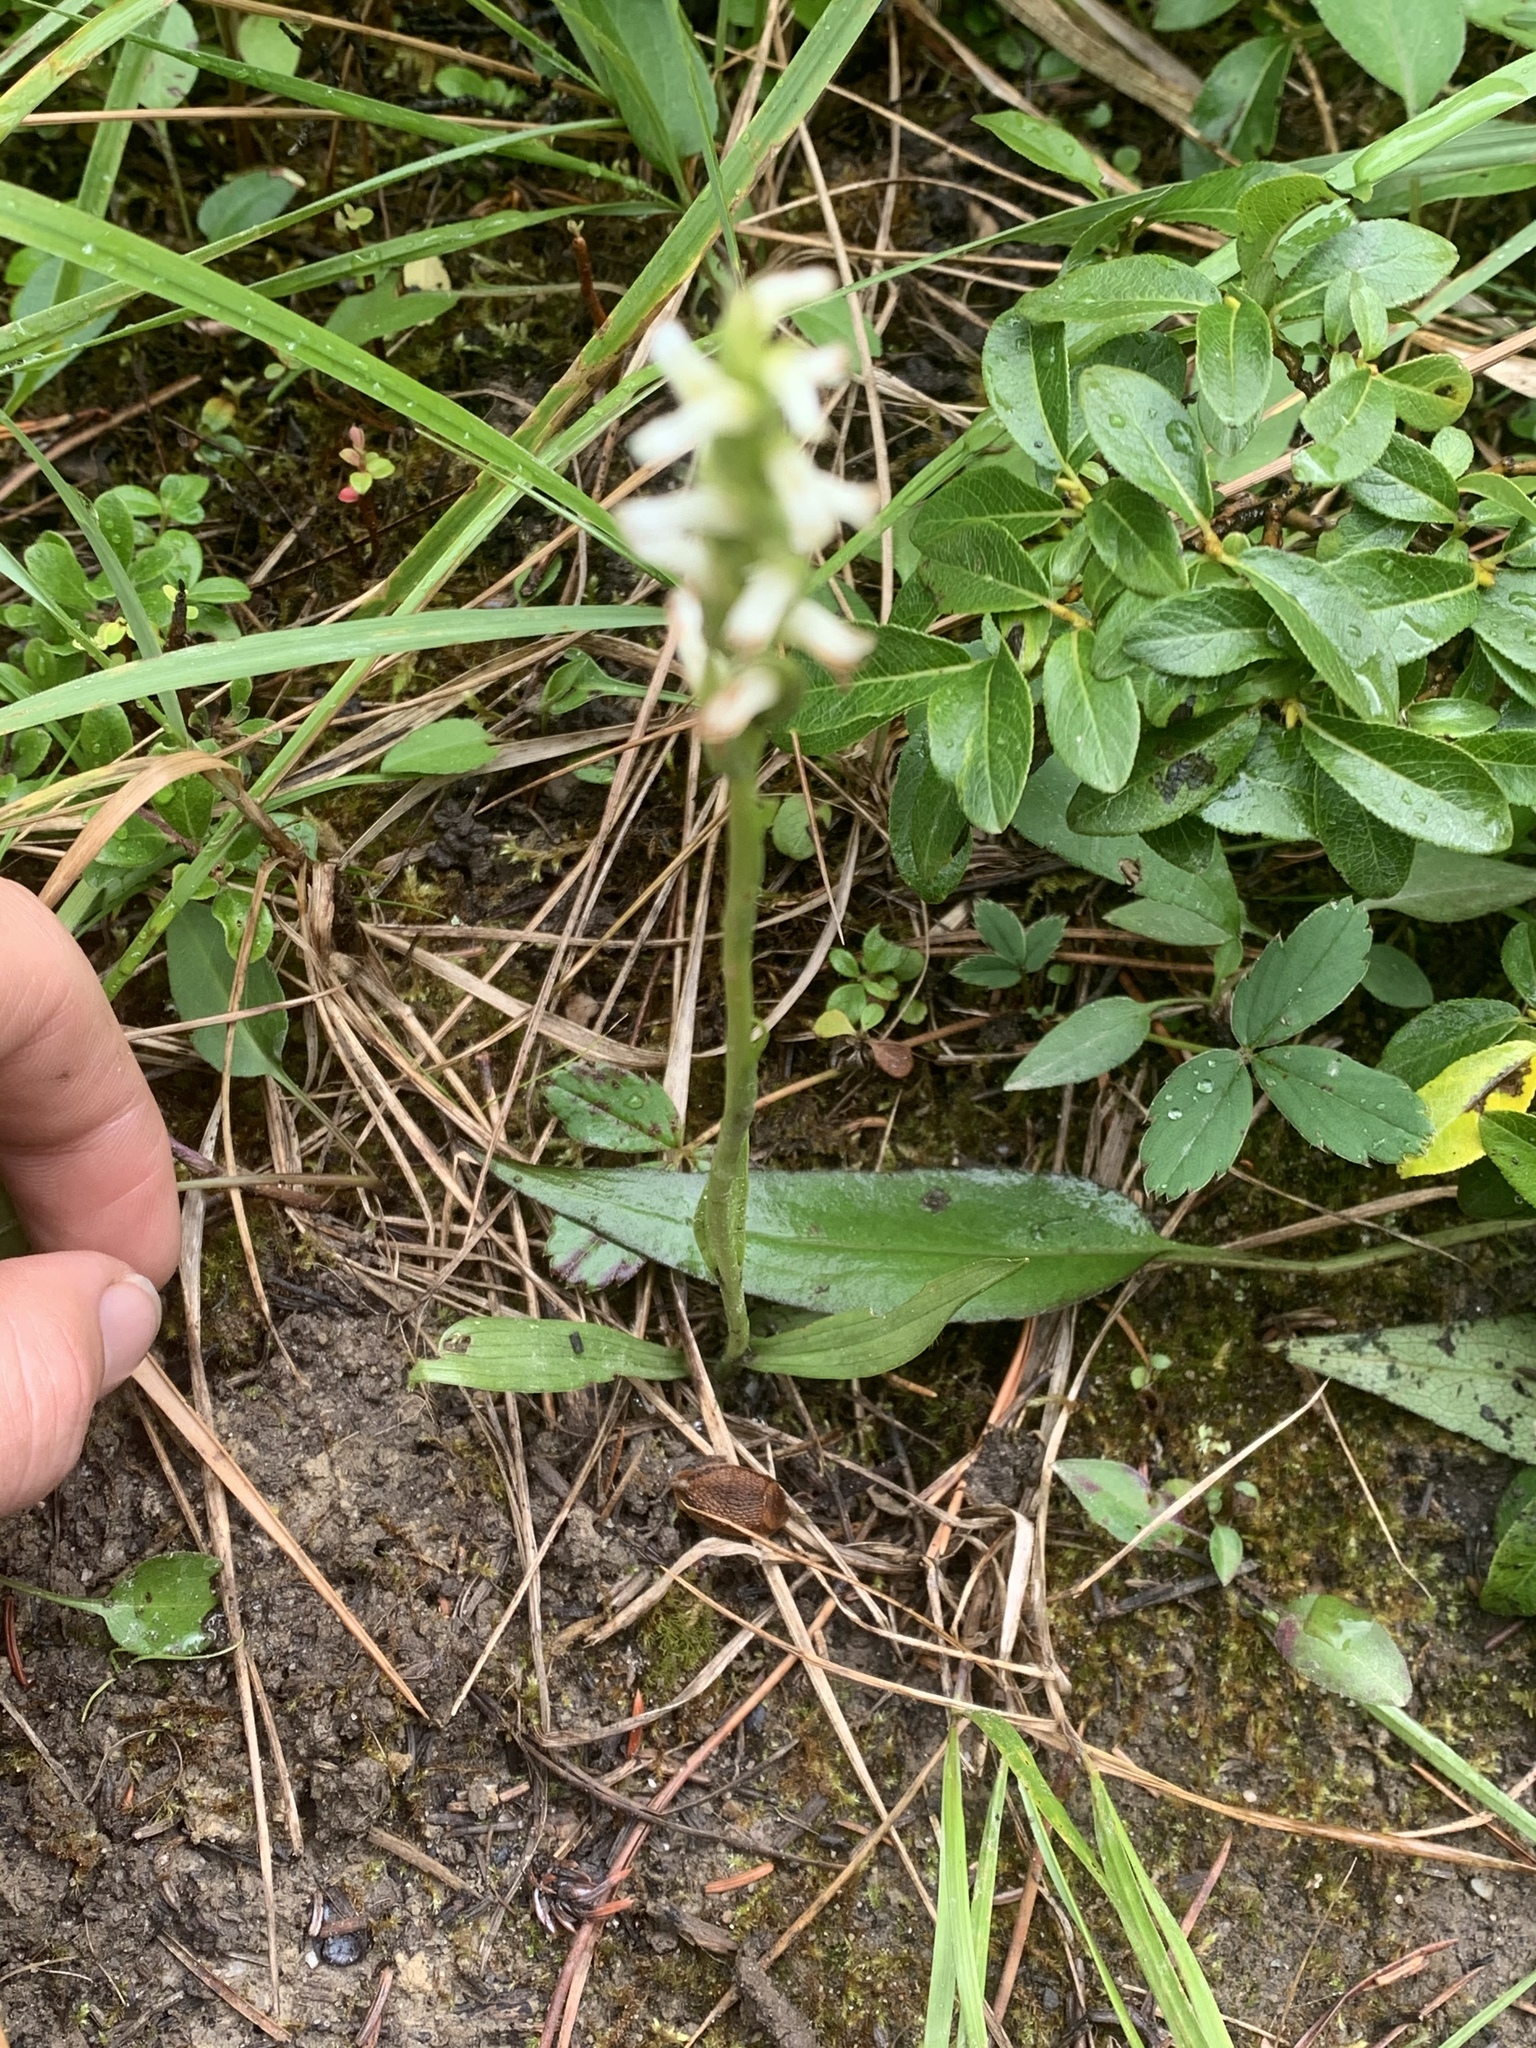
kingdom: Plantae
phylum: Tracheophyta
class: Liliopsida
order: Asparagales
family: Orchidaceae
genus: Spiranthes
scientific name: Spiranthes romanzoffiana
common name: Irish lady's-tresses
